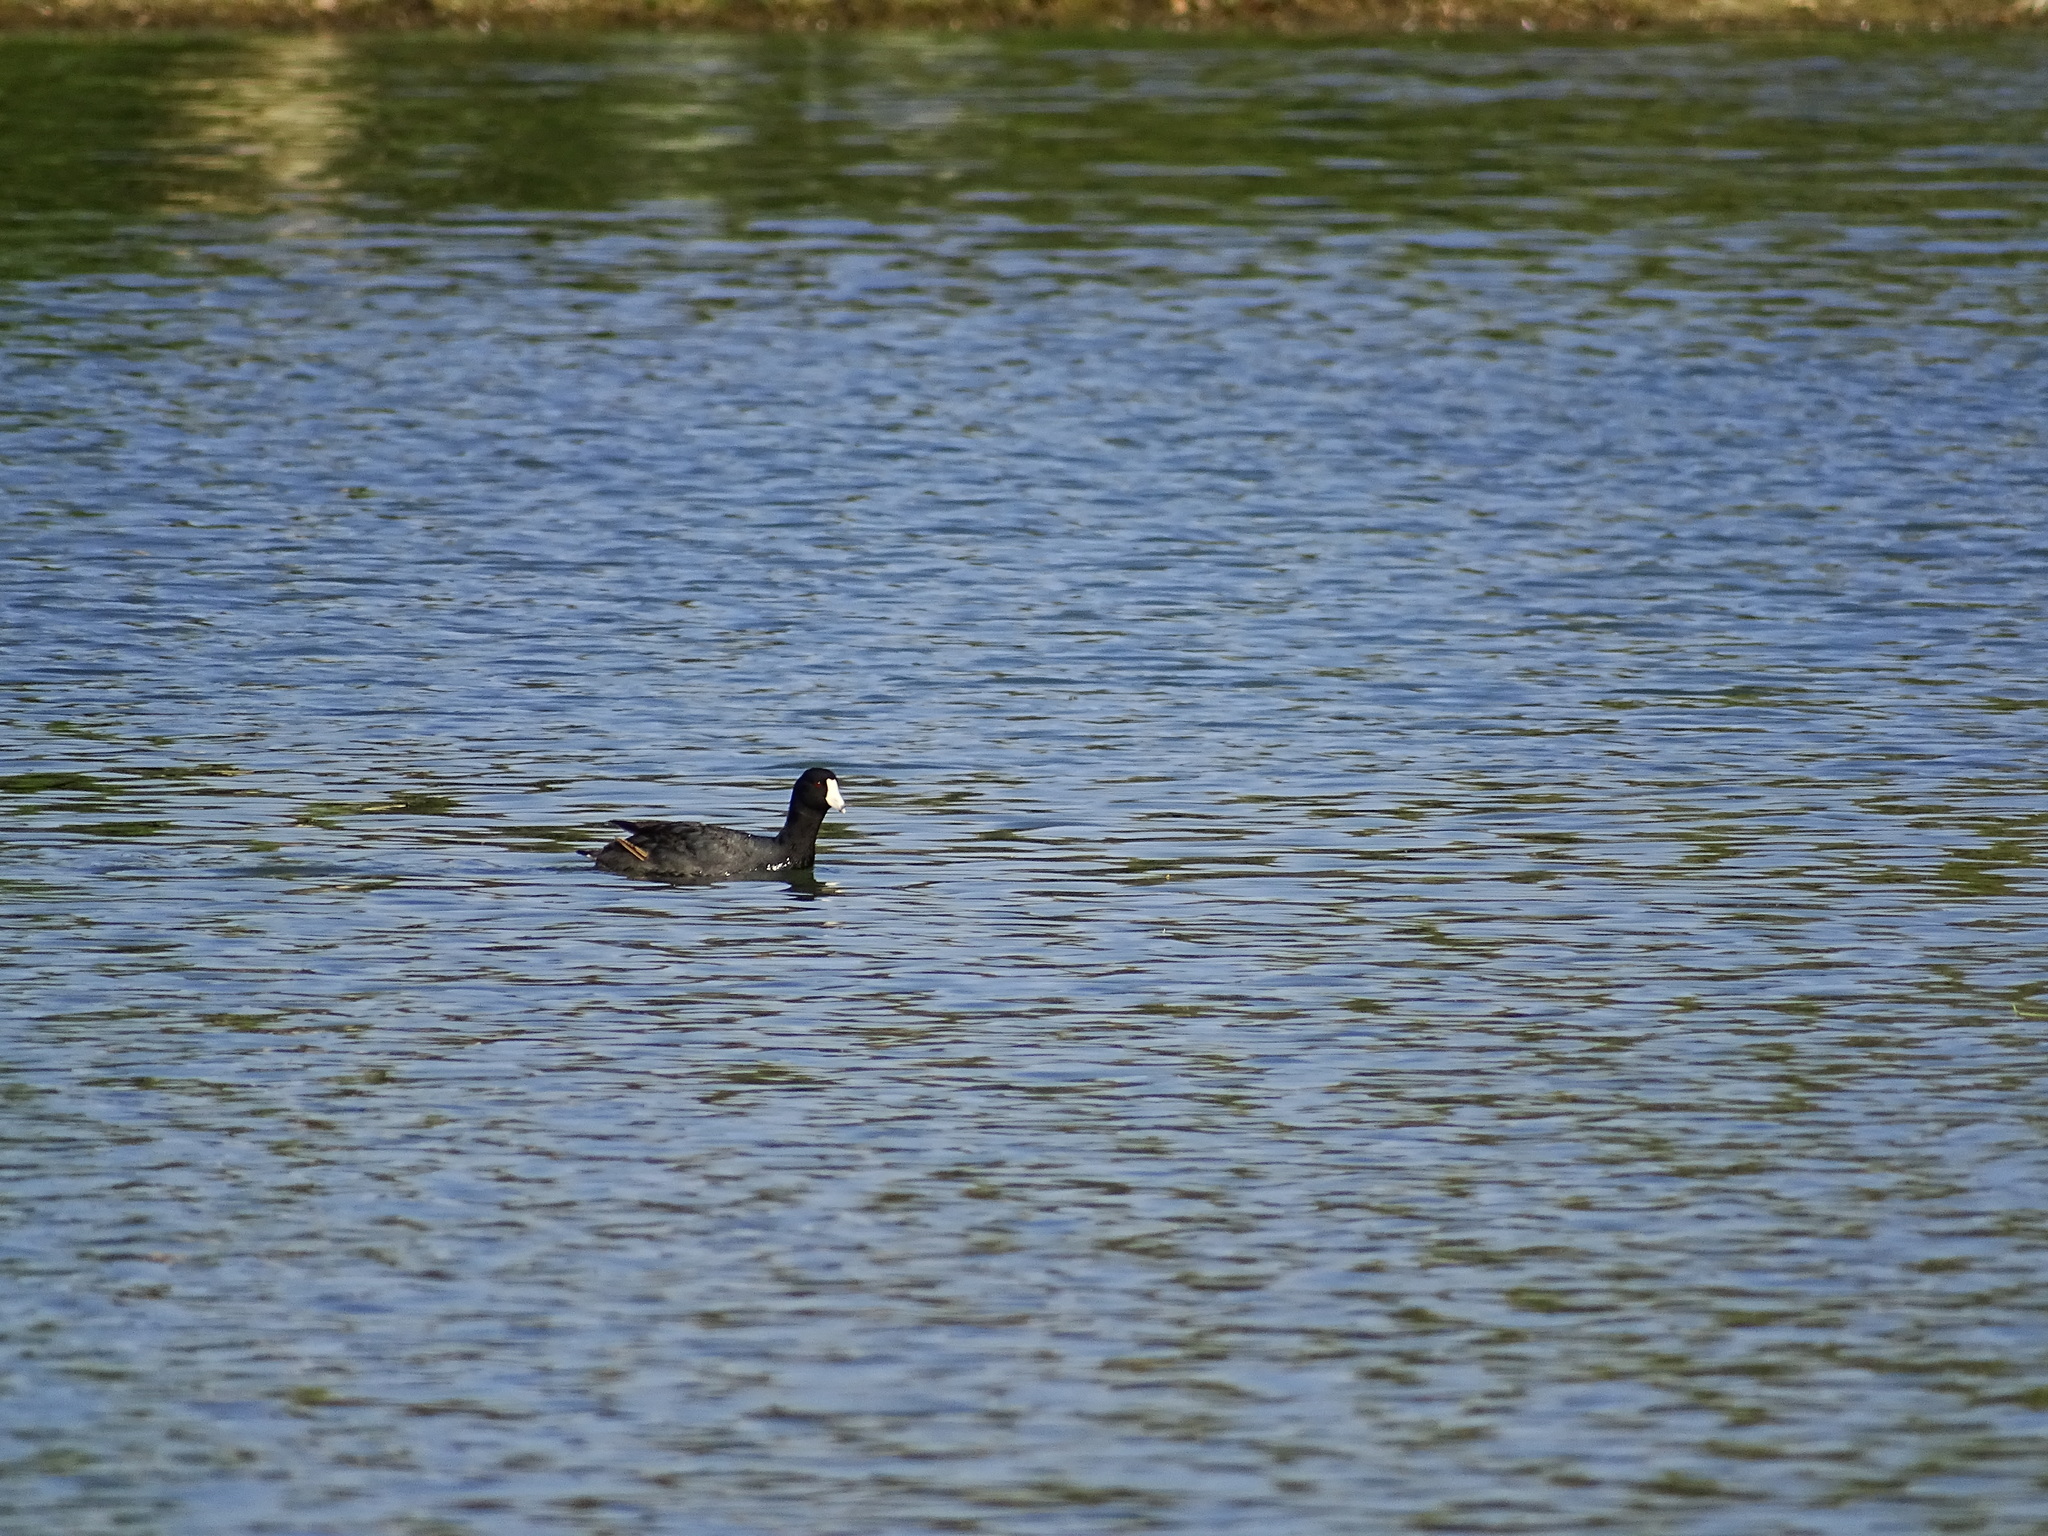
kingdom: Animalia
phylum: Chordata
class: Aves
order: Gruiformes
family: Rallidae
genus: Fulica
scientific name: Fulica americana
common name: American coot
